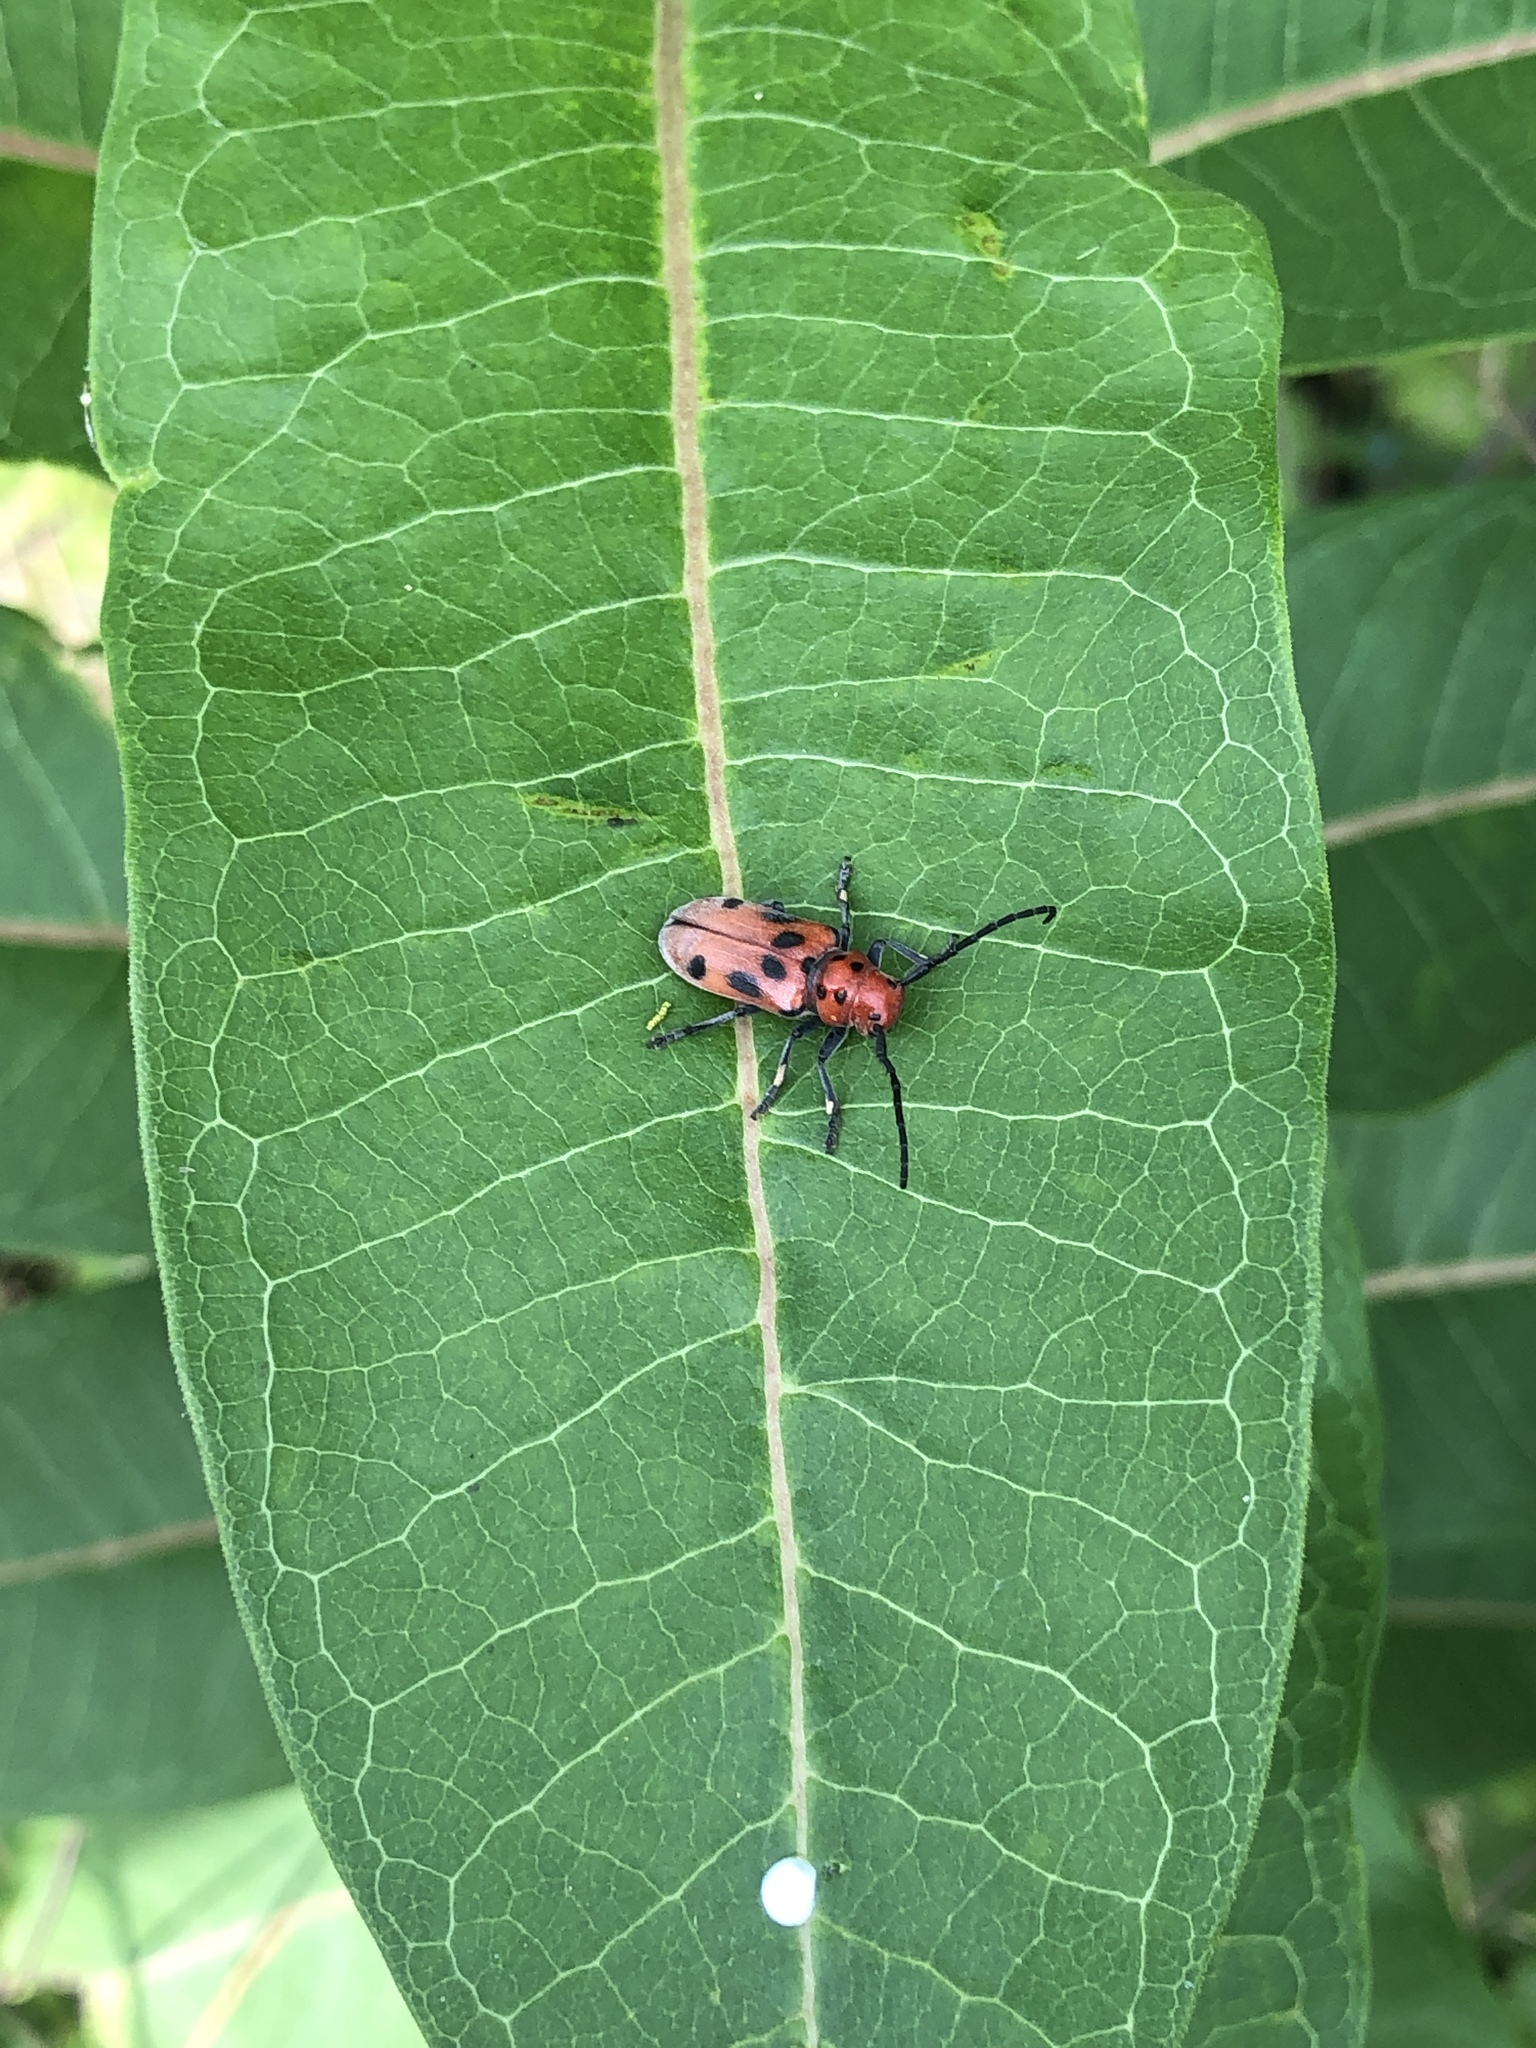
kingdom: Animalia
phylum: Arthropoda
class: Insecta
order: Coleoptera
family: Cerambycidae
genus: Tetraopes
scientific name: Tetraopes tetrophthalmus
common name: Red milkweed beetle
